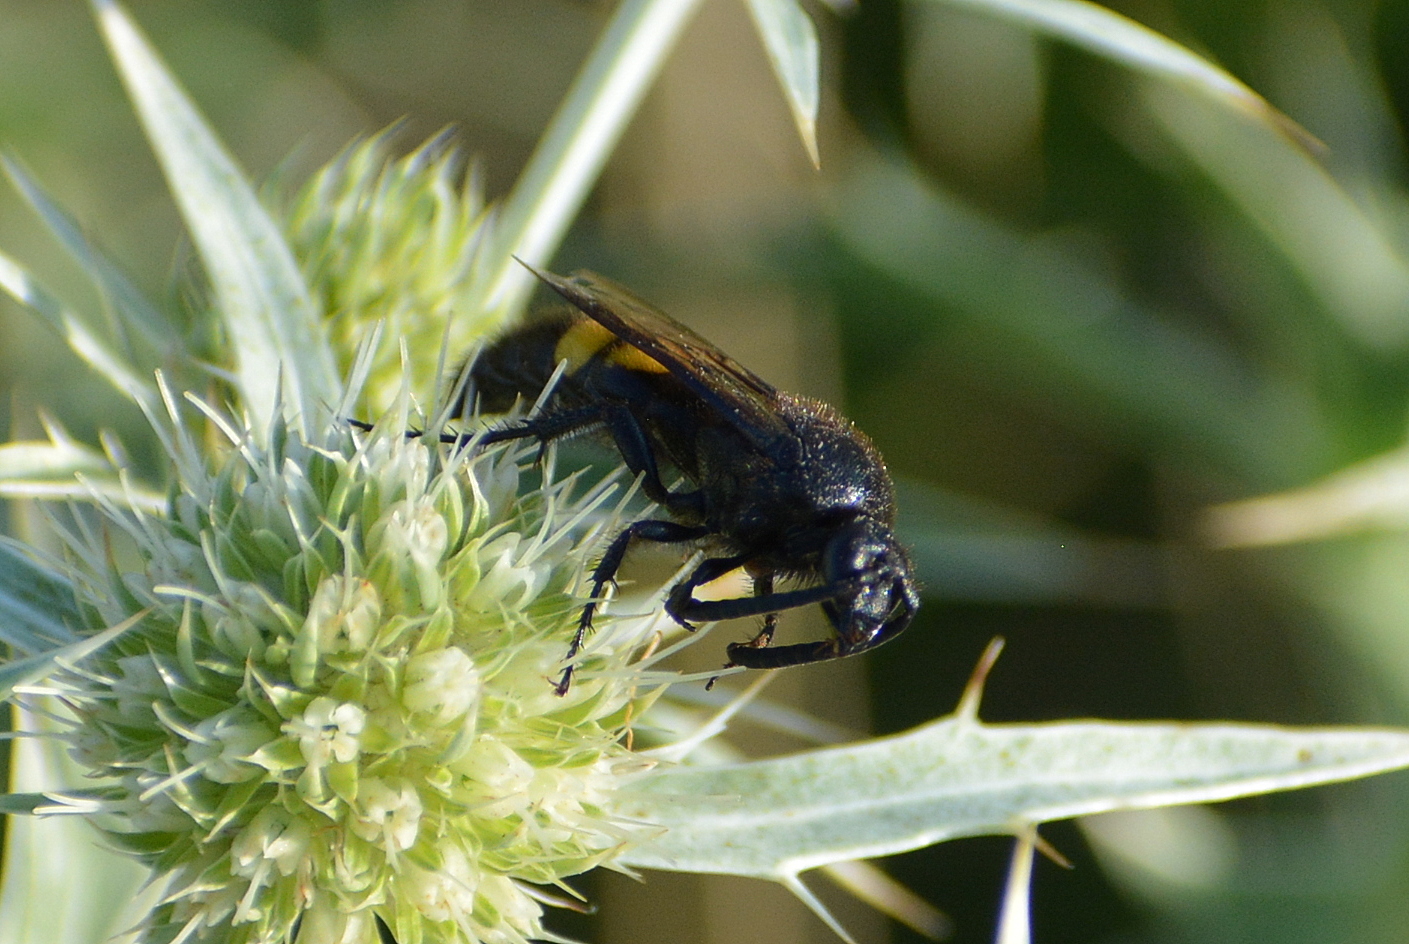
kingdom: Animalia
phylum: Arthropoda
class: Insecta
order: Hymenoptera
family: Scoliidae
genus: Scolia
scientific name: Scolia hirta
